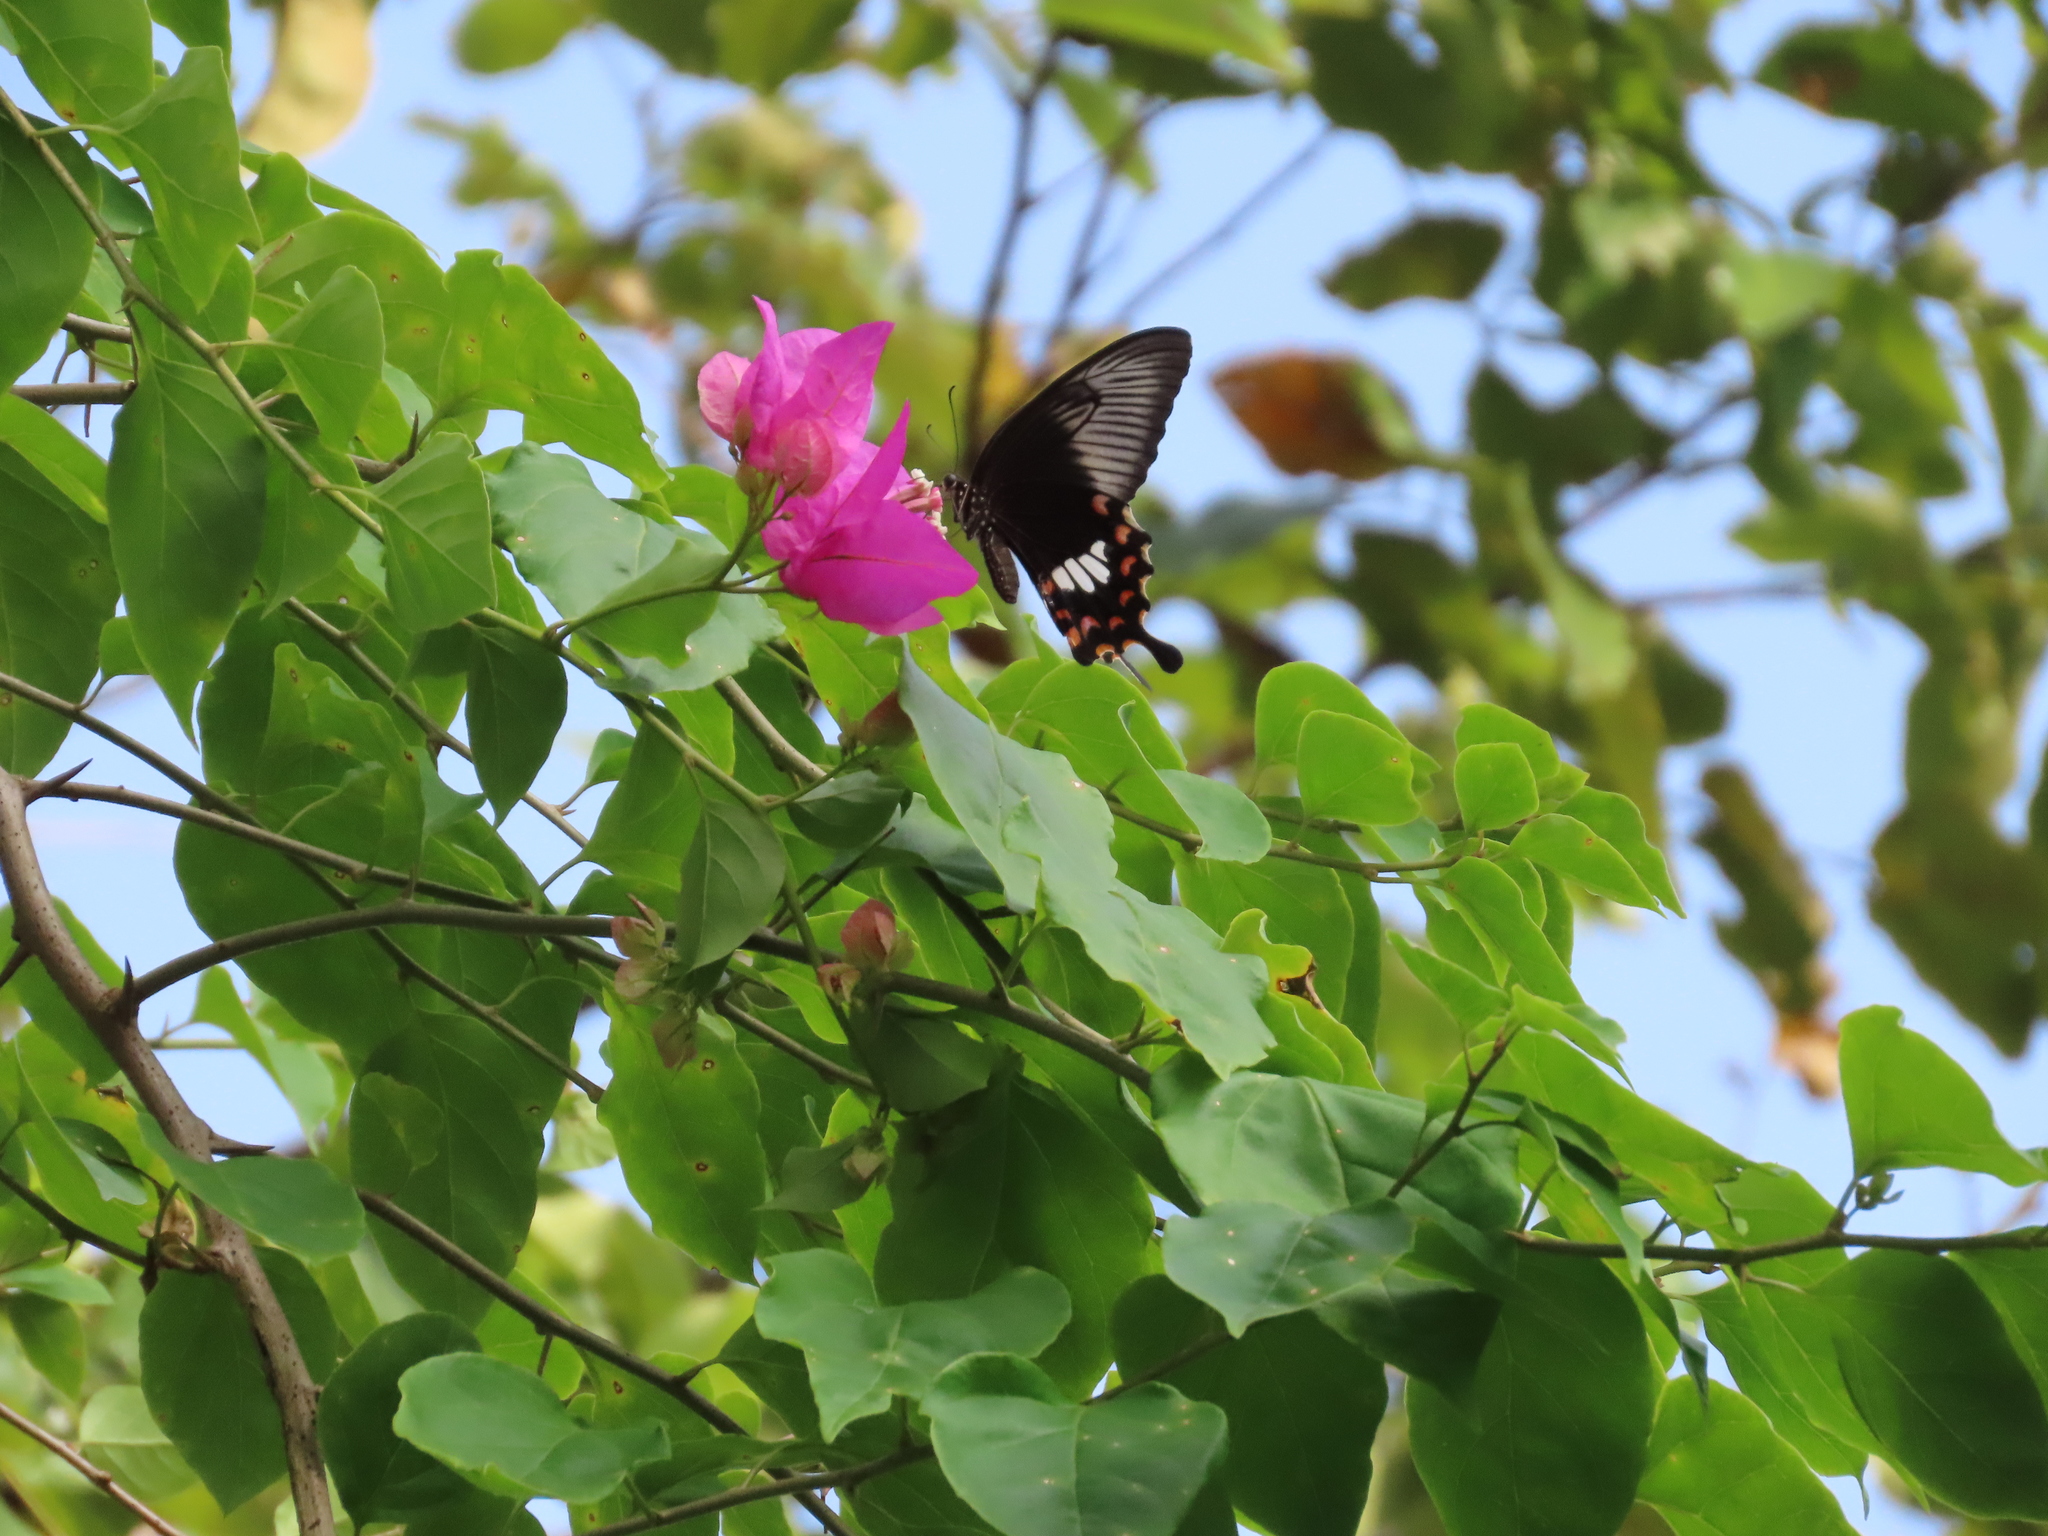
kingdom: Animalia
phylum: Arthropoda
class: Insecta
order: Lepidoptera
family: Papilionidae
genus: Papilio
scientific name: Papilio polytes
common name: Common mormon
